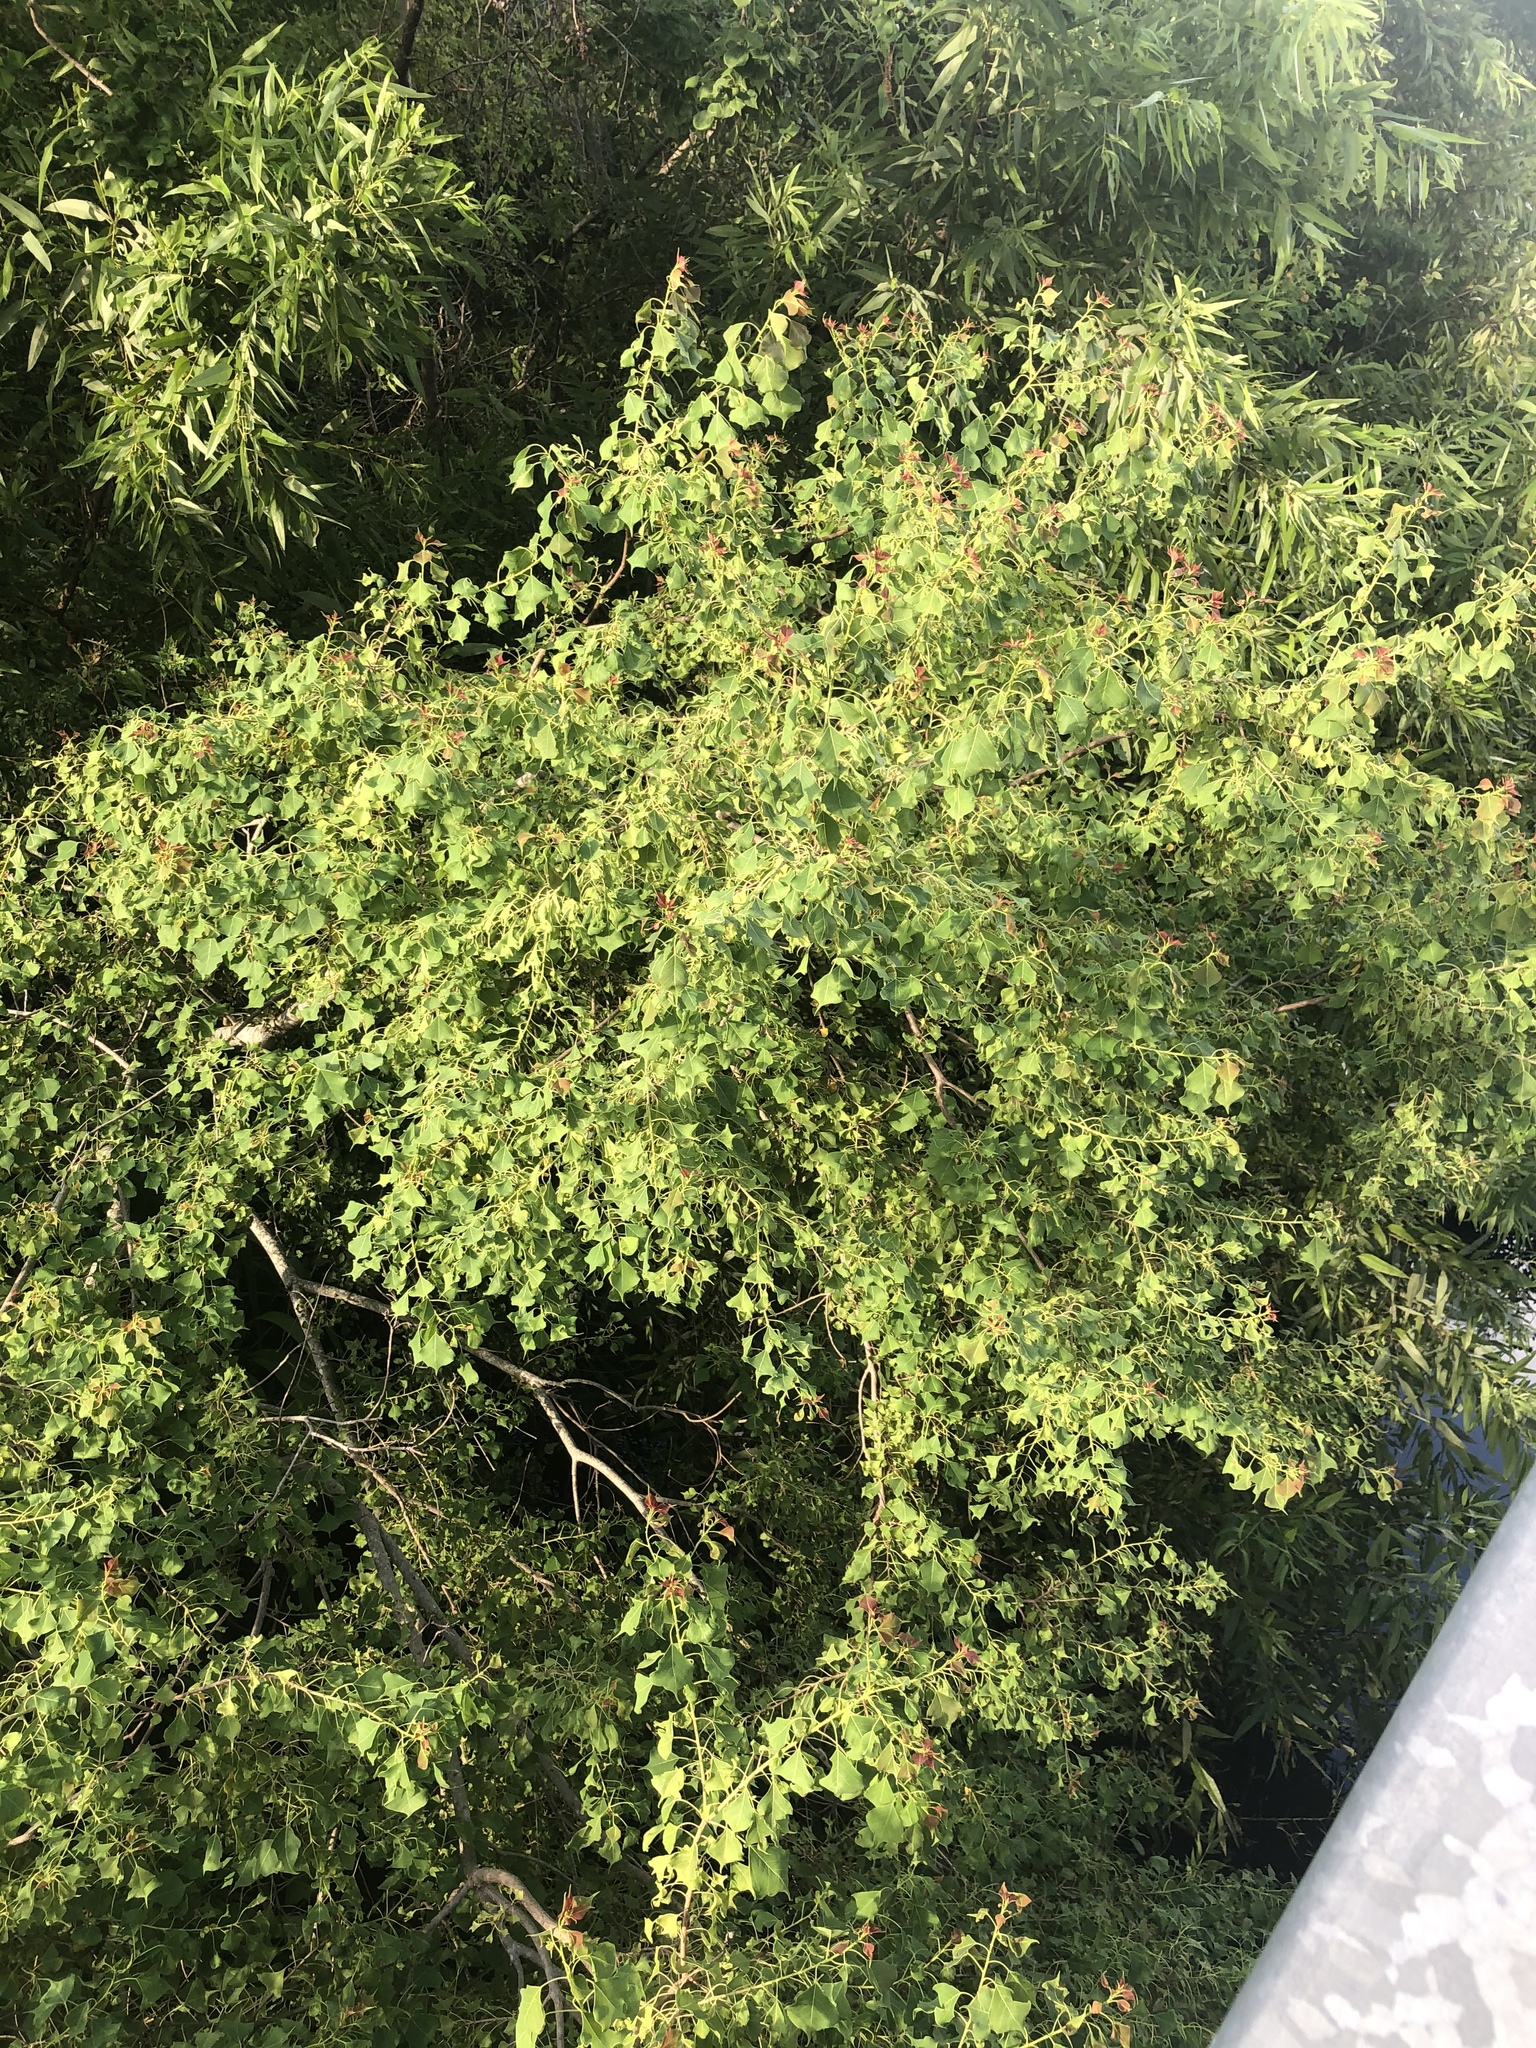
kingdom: Plantae
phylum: Tracheophyta
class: Magnoliopsida
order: Malpighiales
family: Euphorbiaceae
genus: Triadica
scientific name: Triadica sebifera
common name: Chinese tallow
